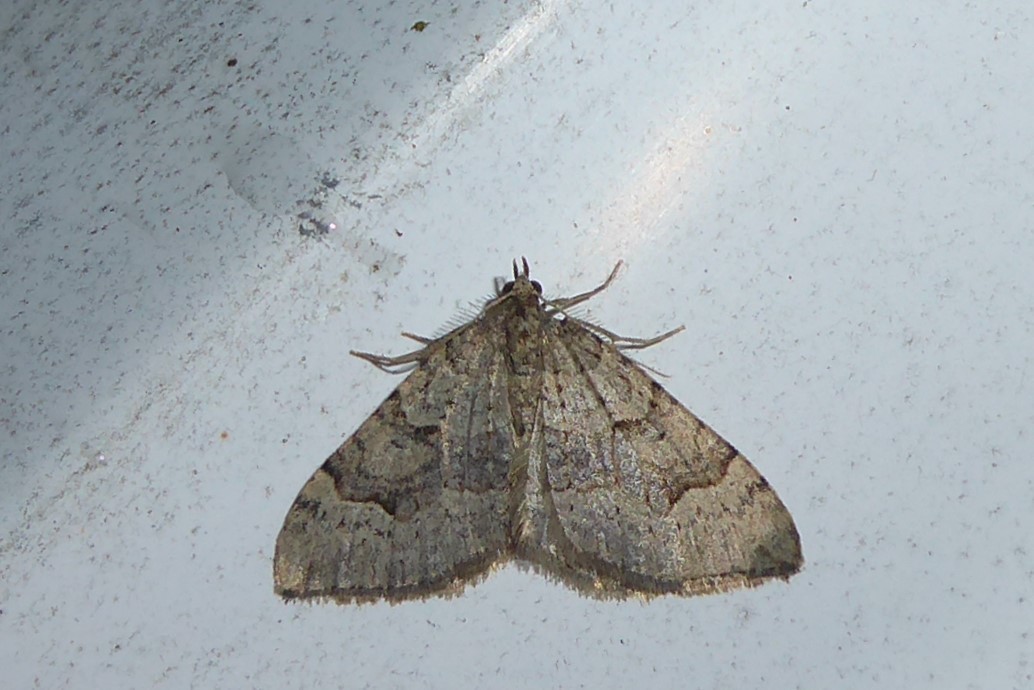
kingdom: Animalia
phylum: Arthropoda
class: Insecta
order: Lepidoptera
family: Geometridae
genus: Epyaxa
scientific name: Epyaxa rosearia
